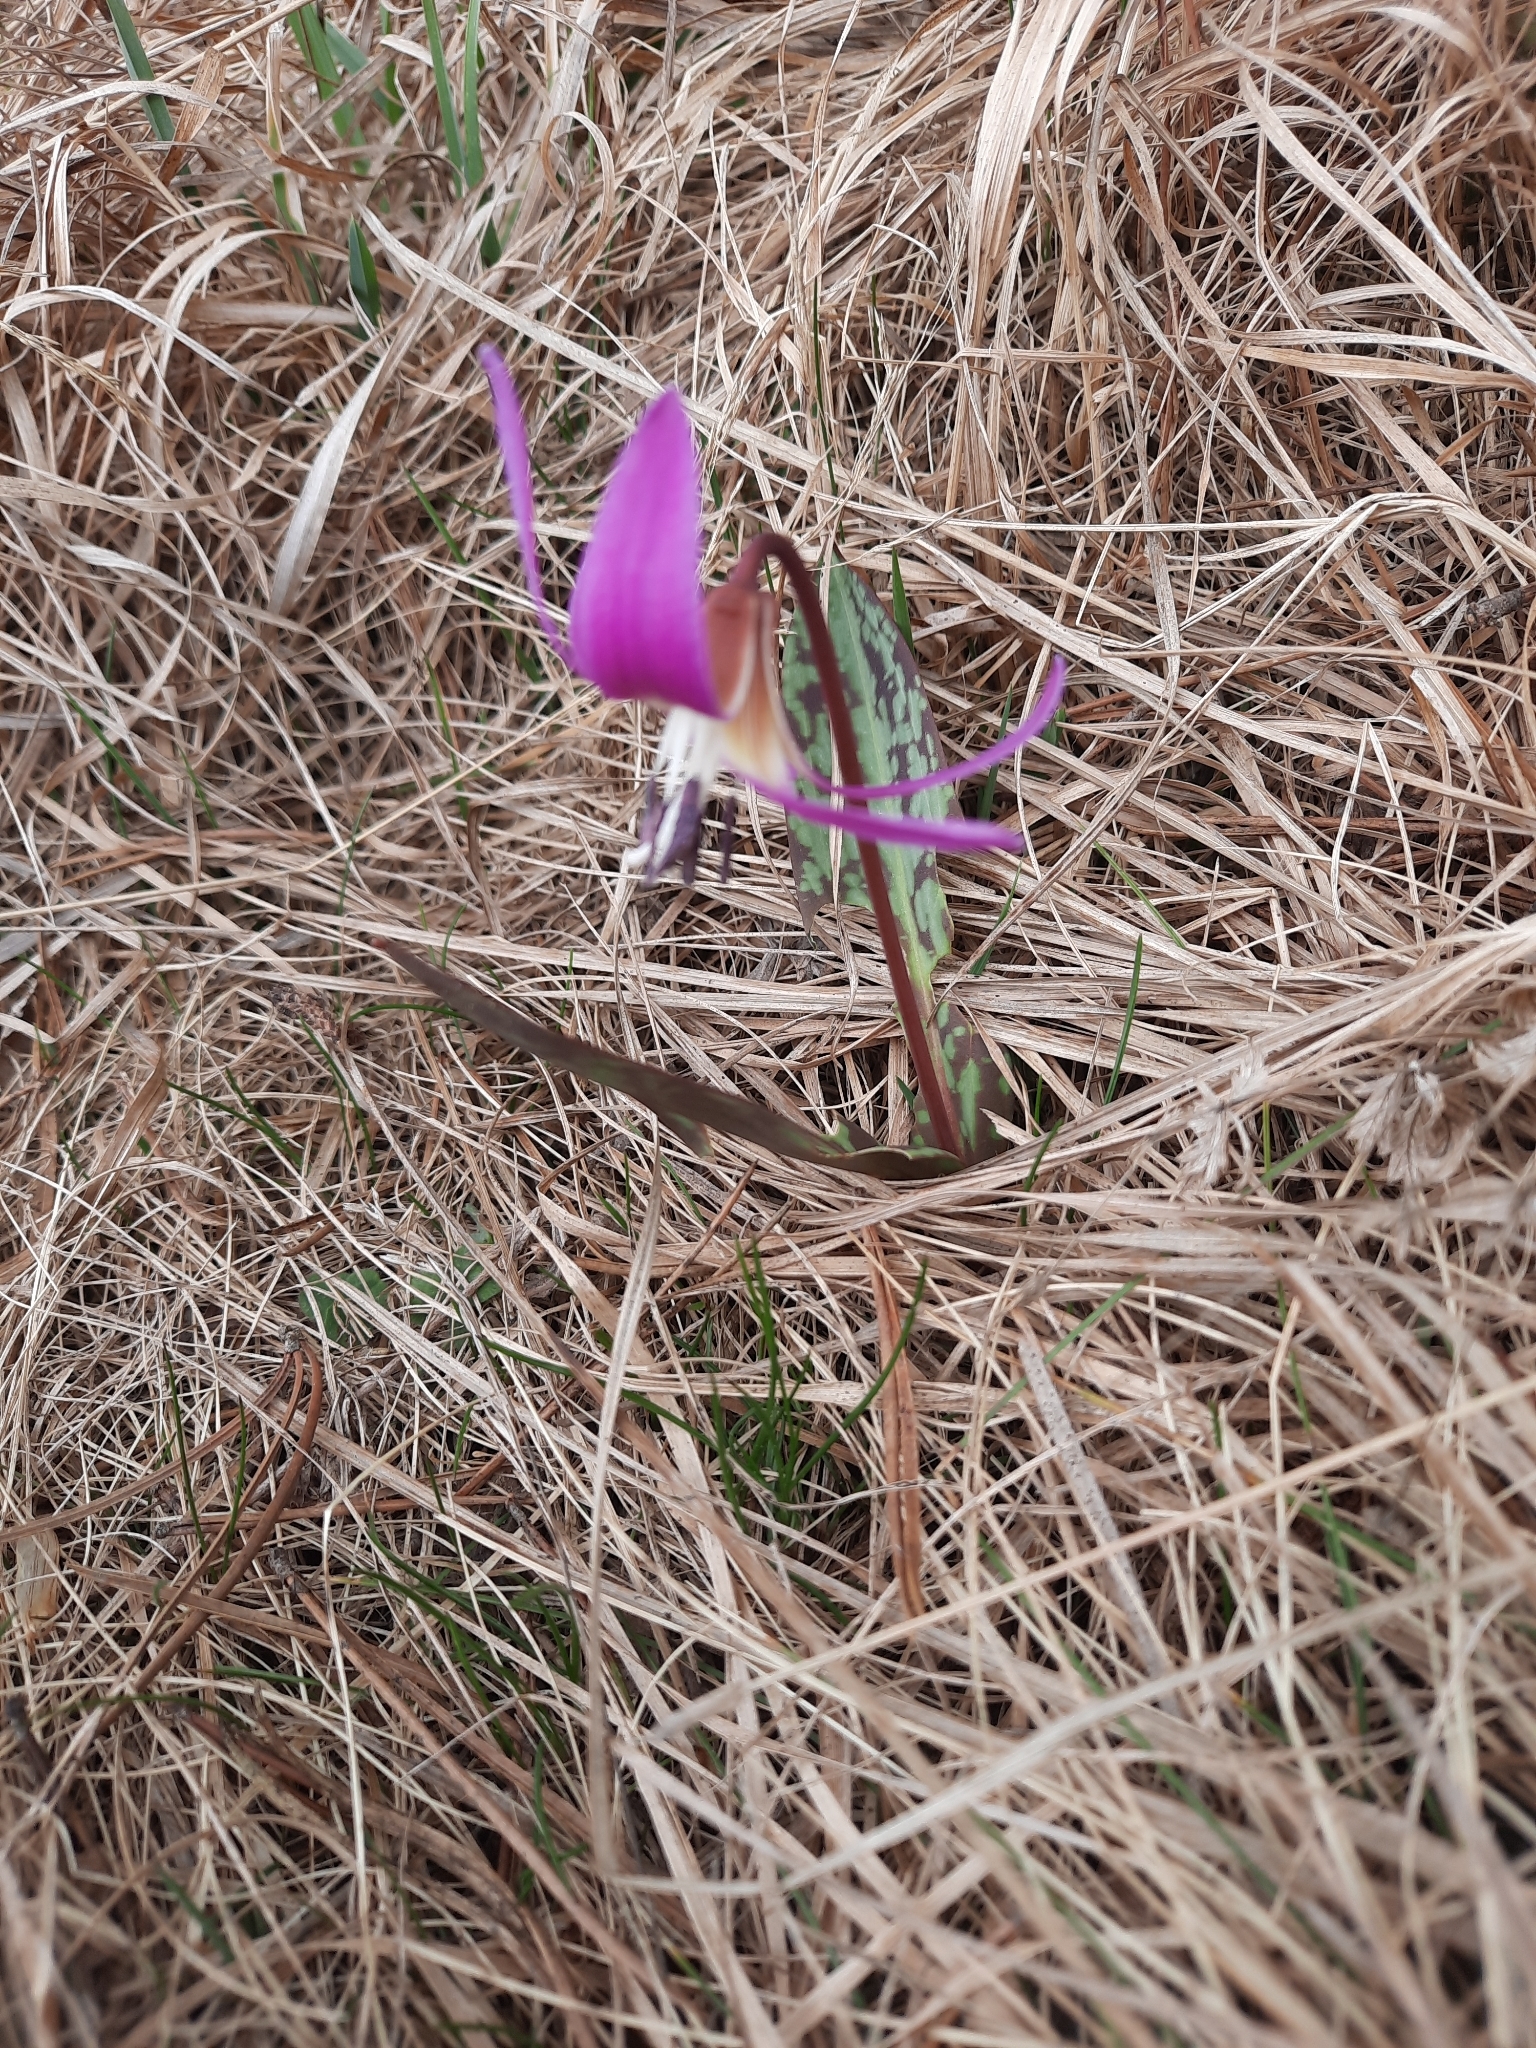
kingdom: Plantae
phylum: Tracheophyta
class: Liliopsida
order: Liliales
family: Liliaceae
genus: Erythronium
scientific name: Erythronium dens-canis
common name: Dog's-tooth-violet
